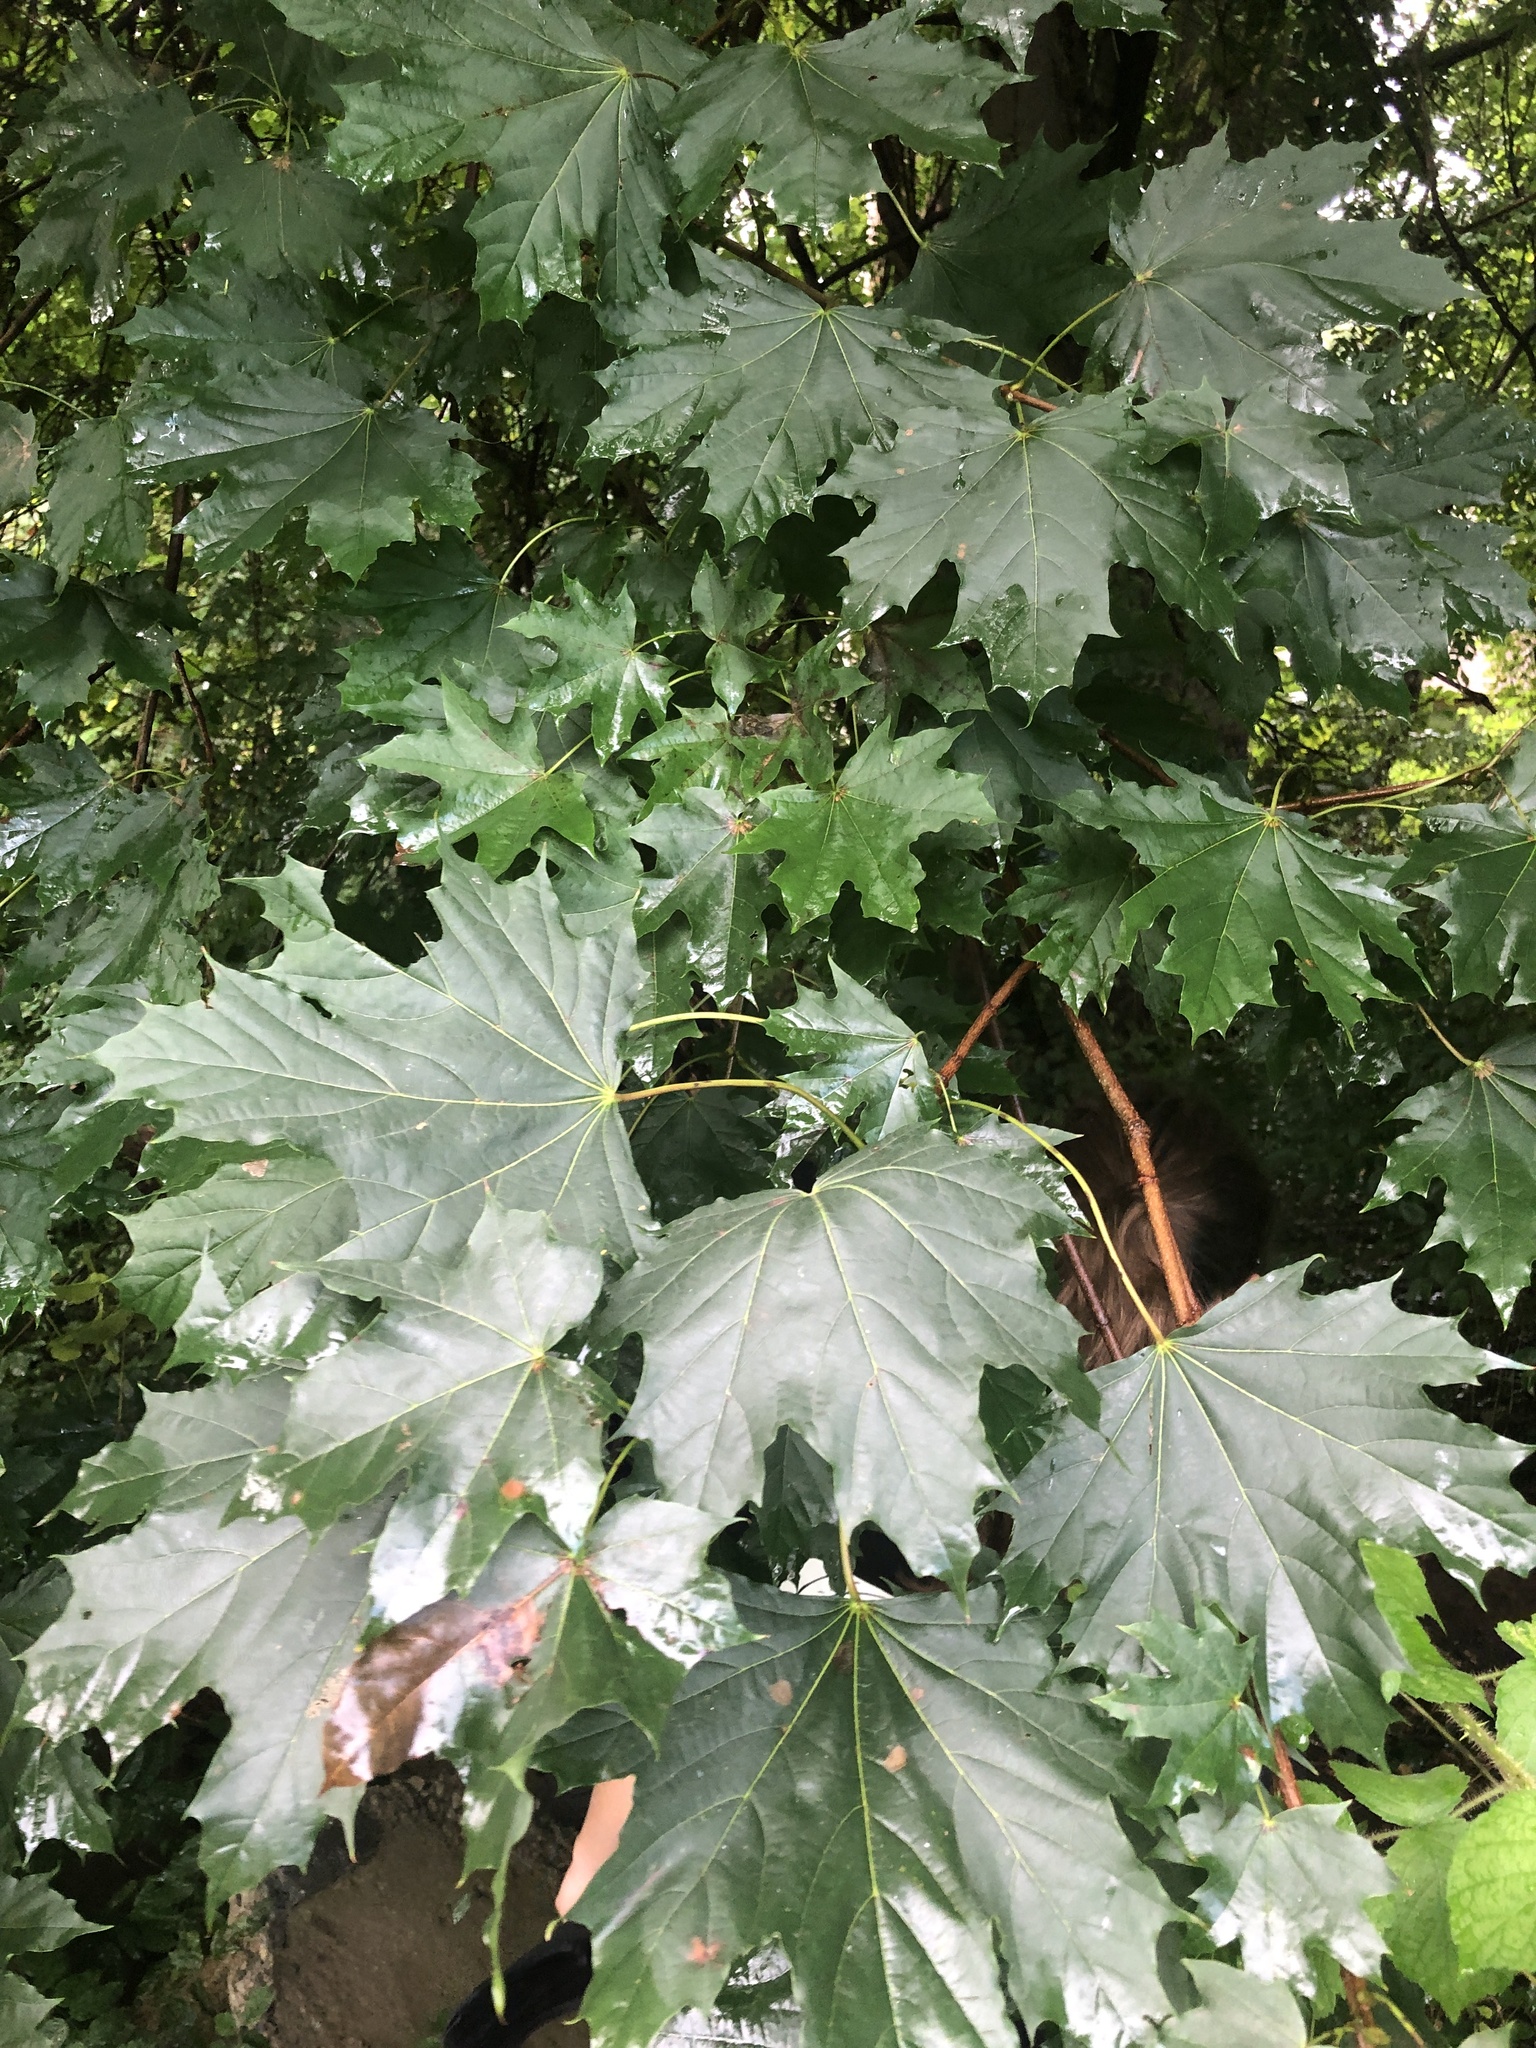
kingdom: Plantae
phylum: Tracheophyta
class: Magnoliopsida
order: Sapindales
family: Sapindaceae
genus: Acer
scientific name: Acer platanoides
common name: Norway maple
